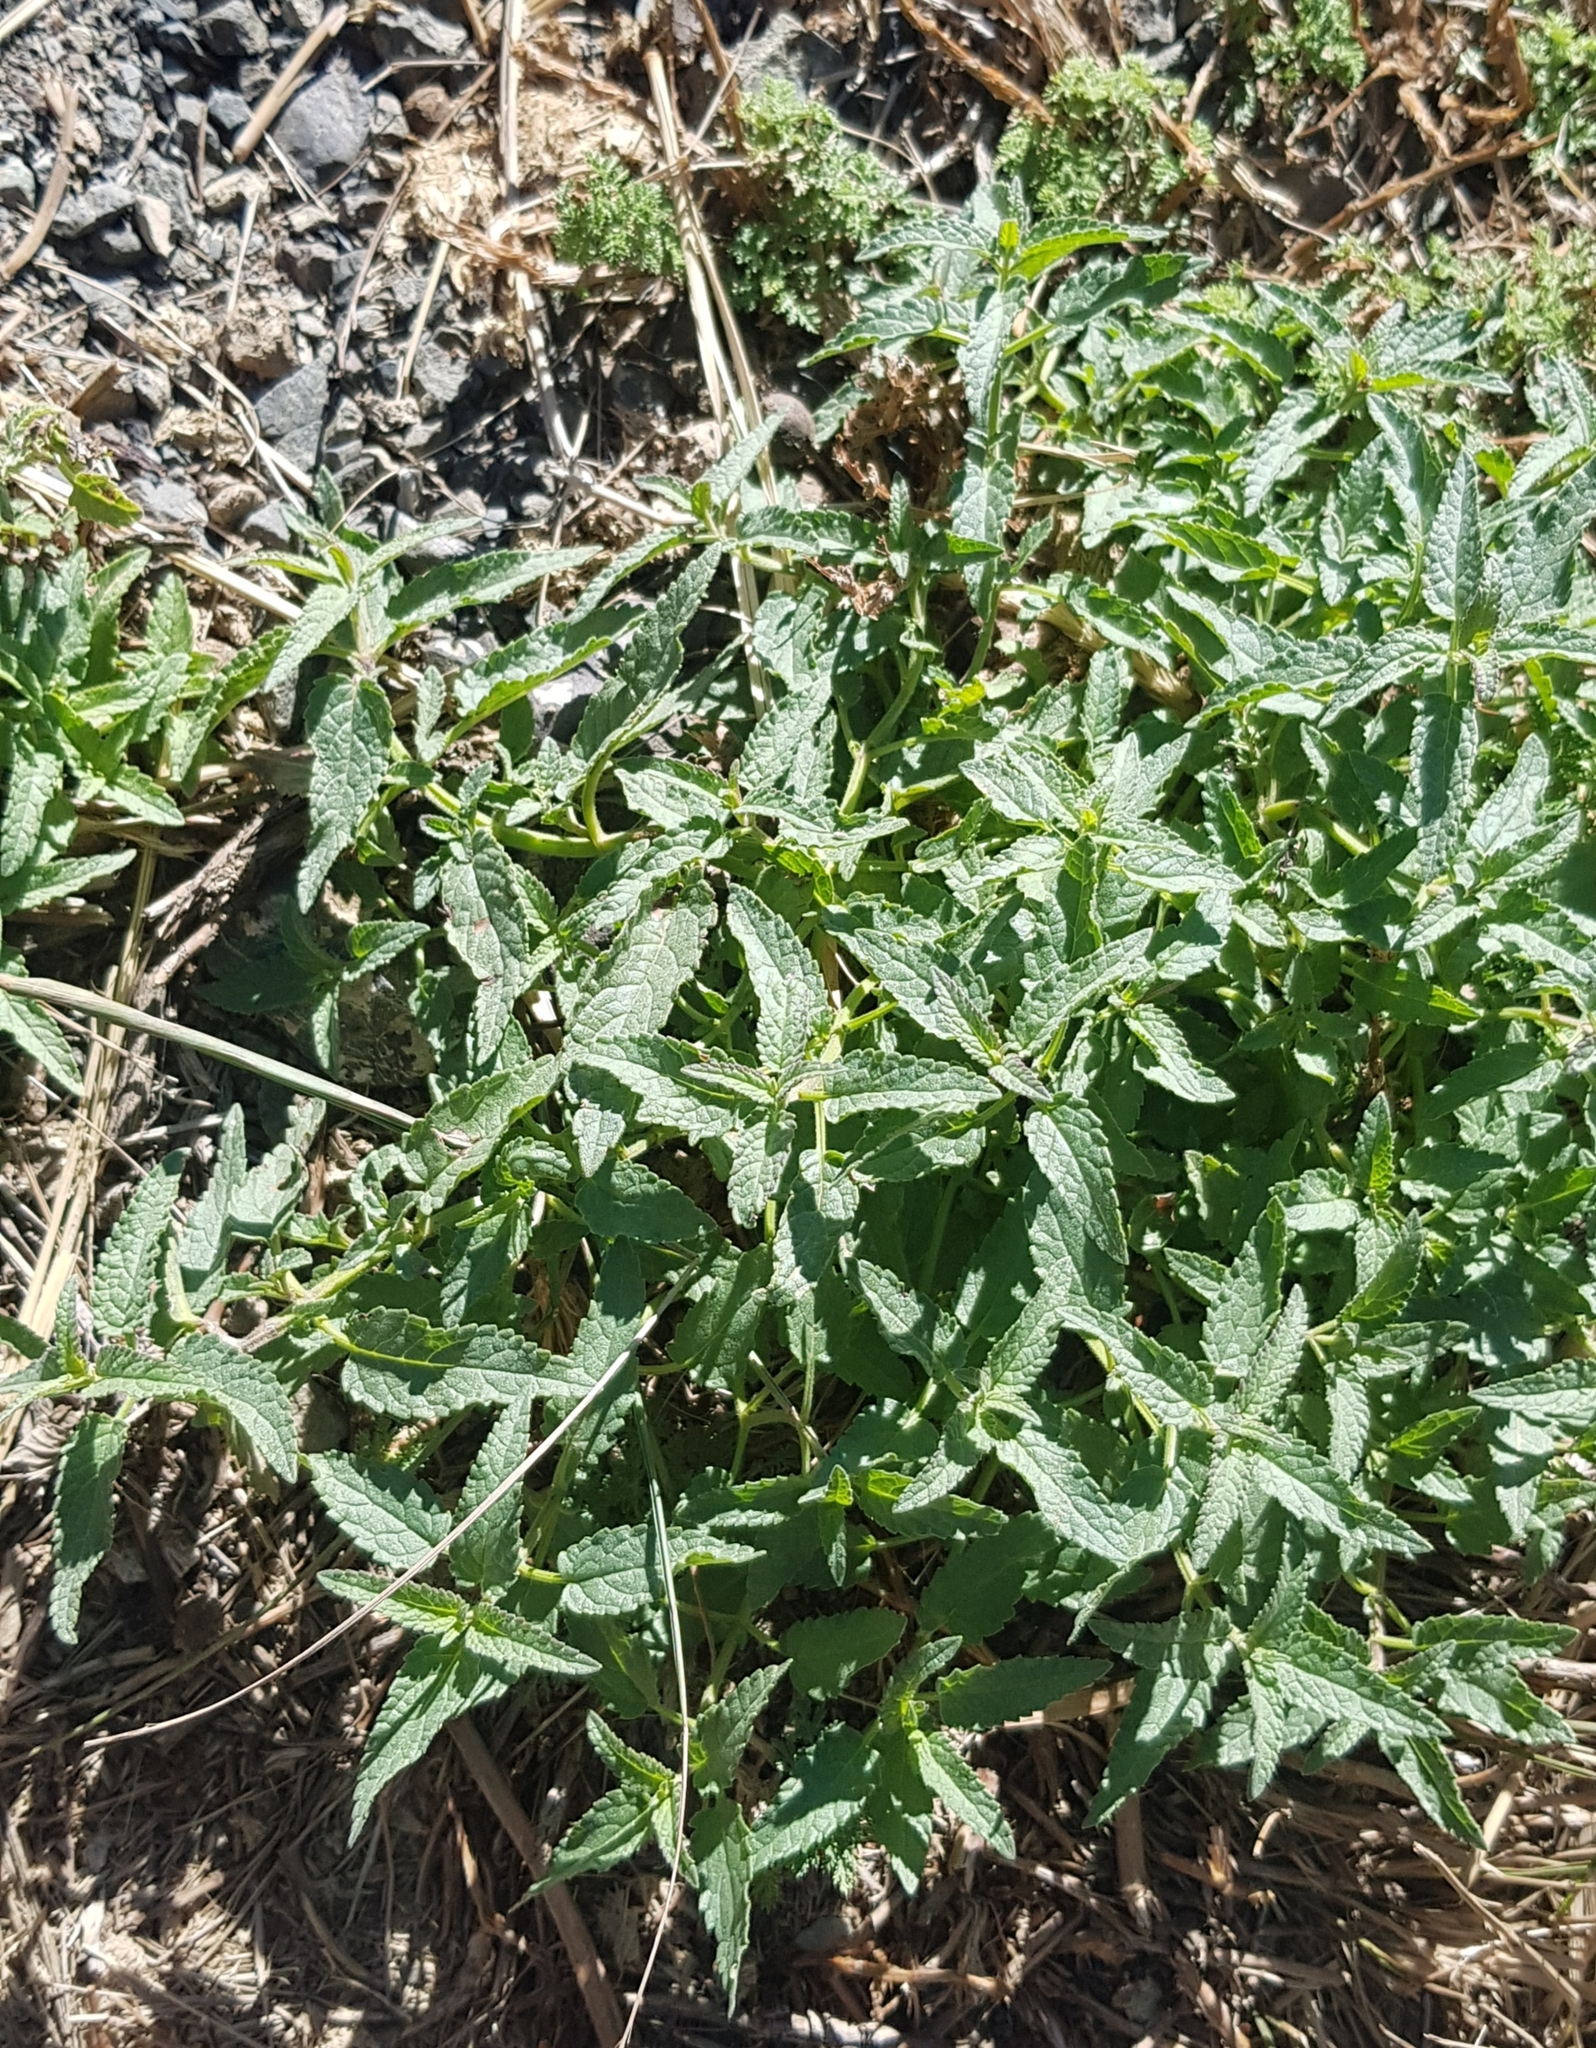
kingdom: Plantae
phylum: Tracheophyta
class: Magnoliopsida
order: Lamiales
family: Lamiaceae
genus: Nepeta
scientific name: Nepeta sibirica
